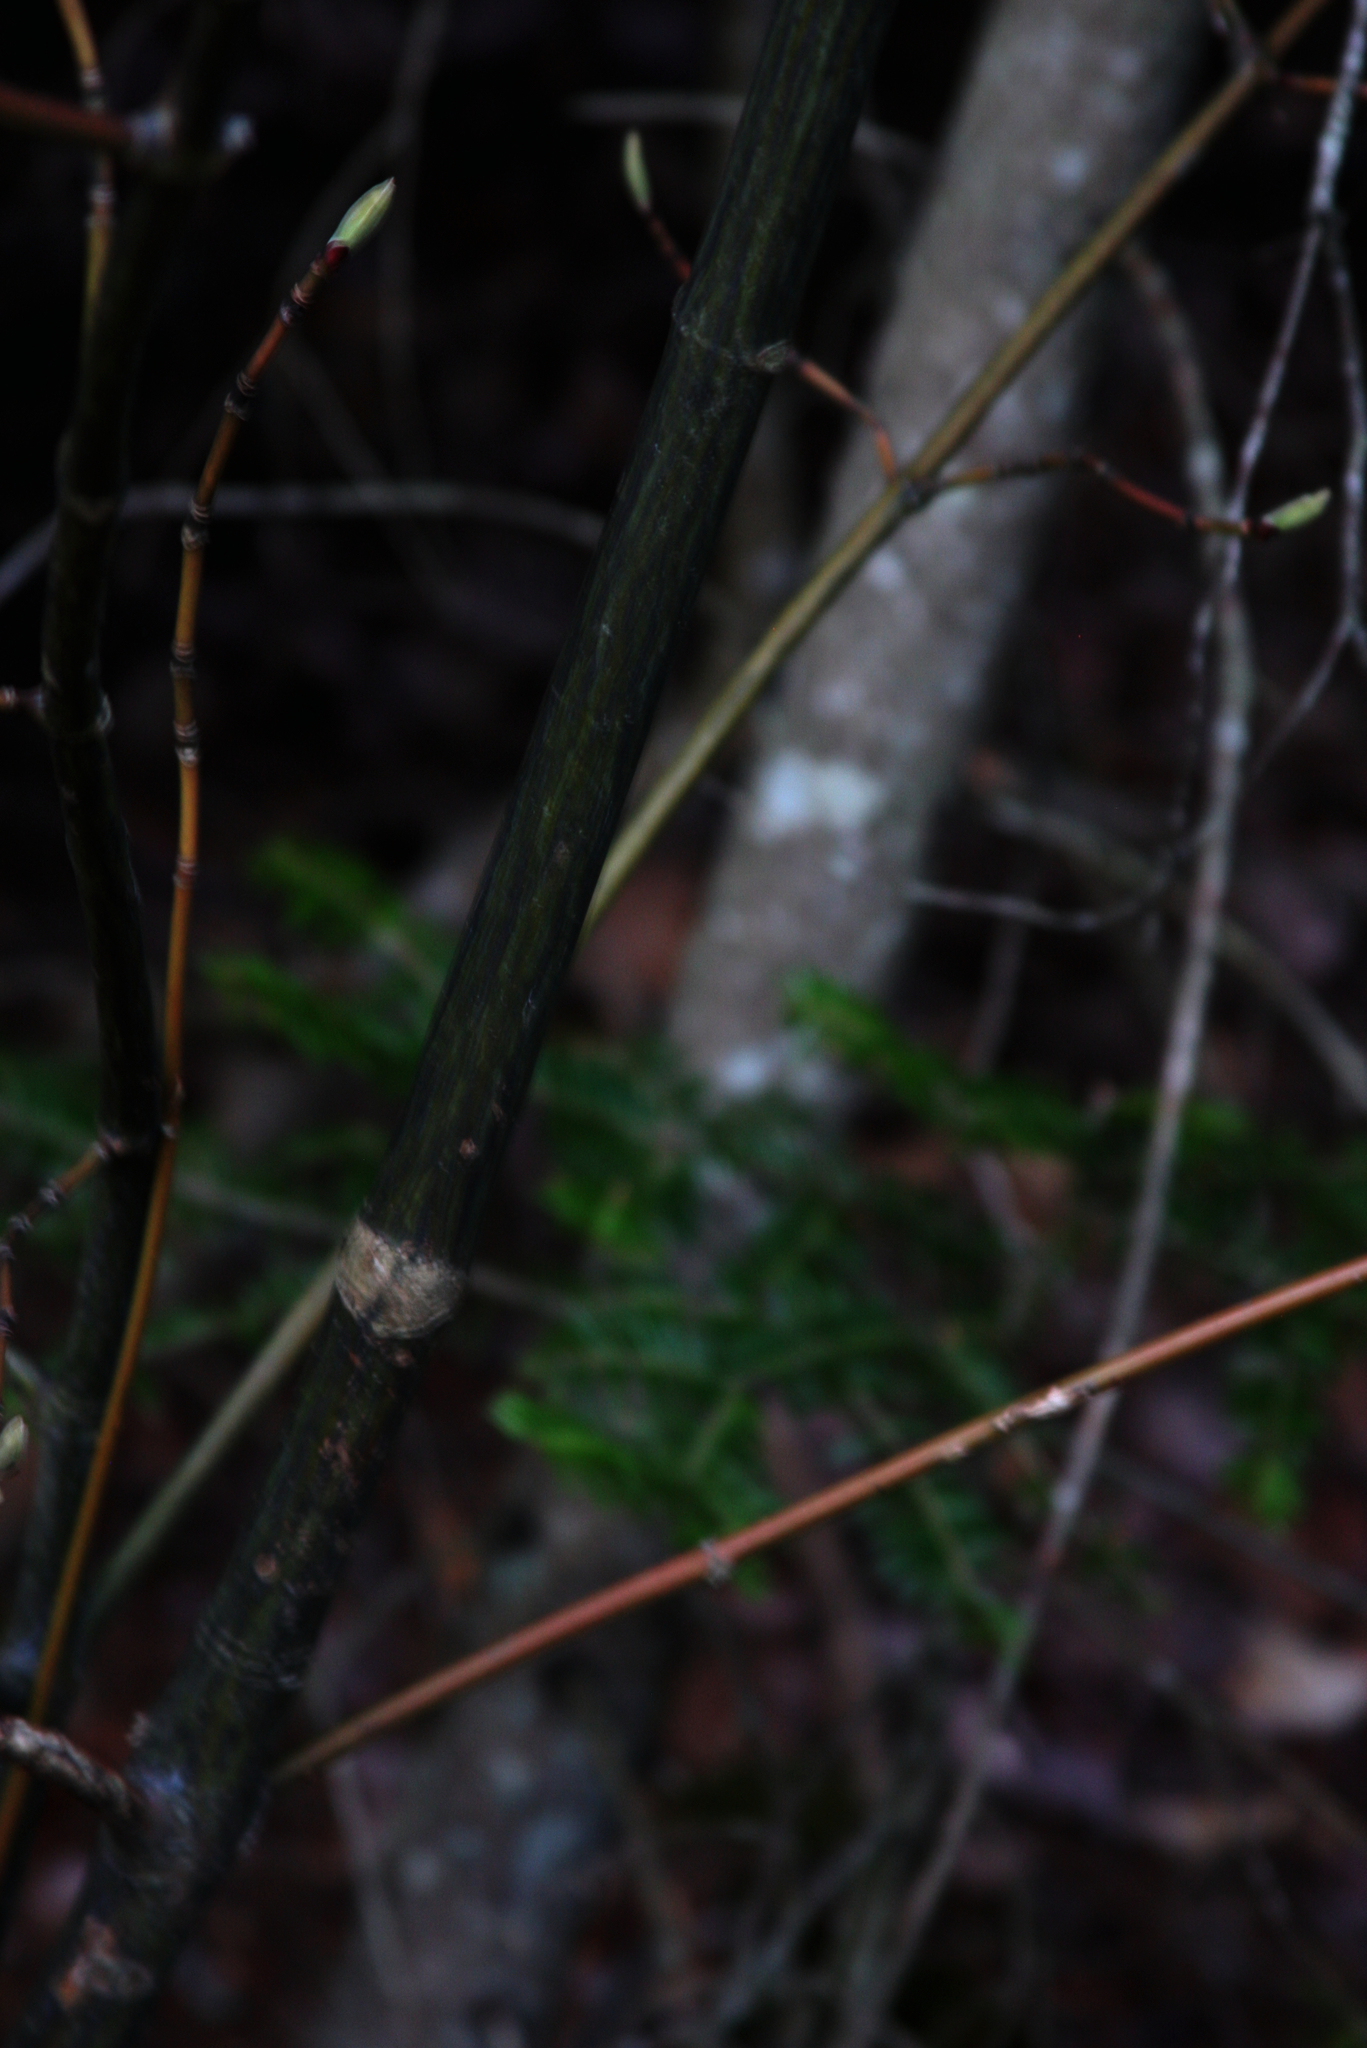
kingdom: Plantae
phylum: Tracheophyta
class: Magnoliopsida
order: Sapindales
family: Sapindaceae
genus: Acer
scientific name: Acer pensylvanicum
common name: Moosewood
